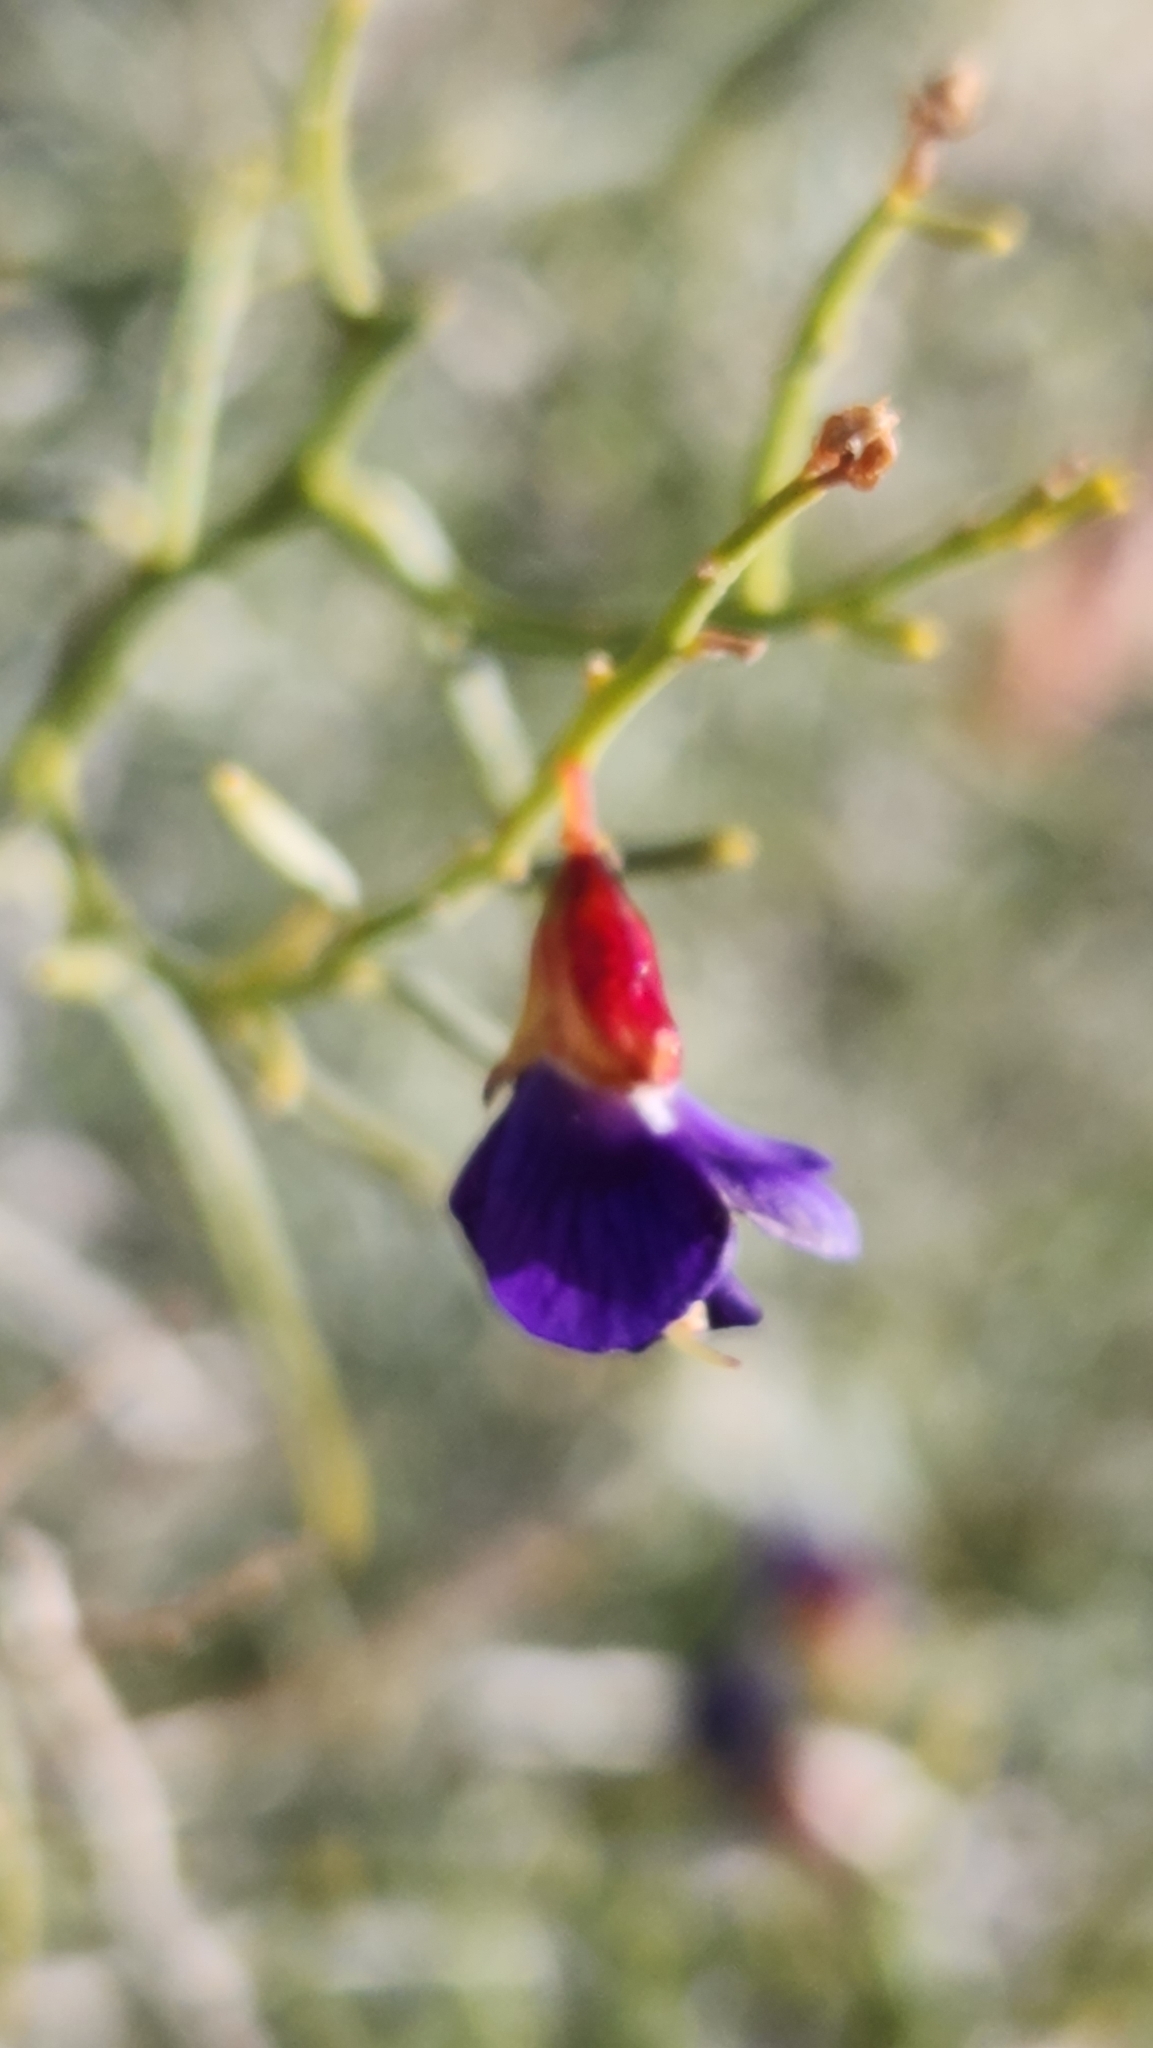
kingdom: Plantae
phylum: Tracheophyta
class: Magnoliopsida
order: Fabales
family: Fabaceae
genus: Psorothamnus
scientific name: Psorothamnus schottii
